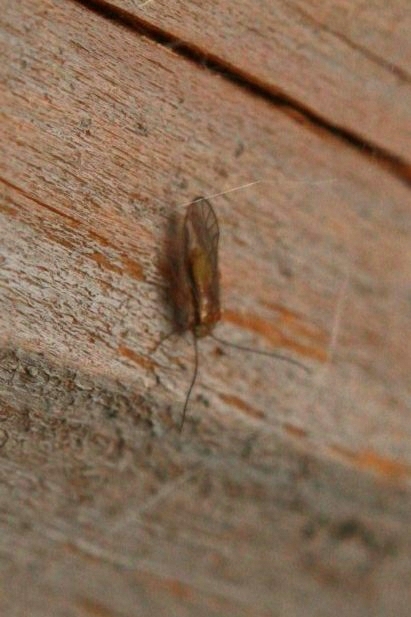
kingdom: Animalia
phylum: Arthropoda
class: Insecta
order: Psocodea
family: Trichopsocidae
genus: Trichopsocus
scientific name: Trichopsocus brincki
